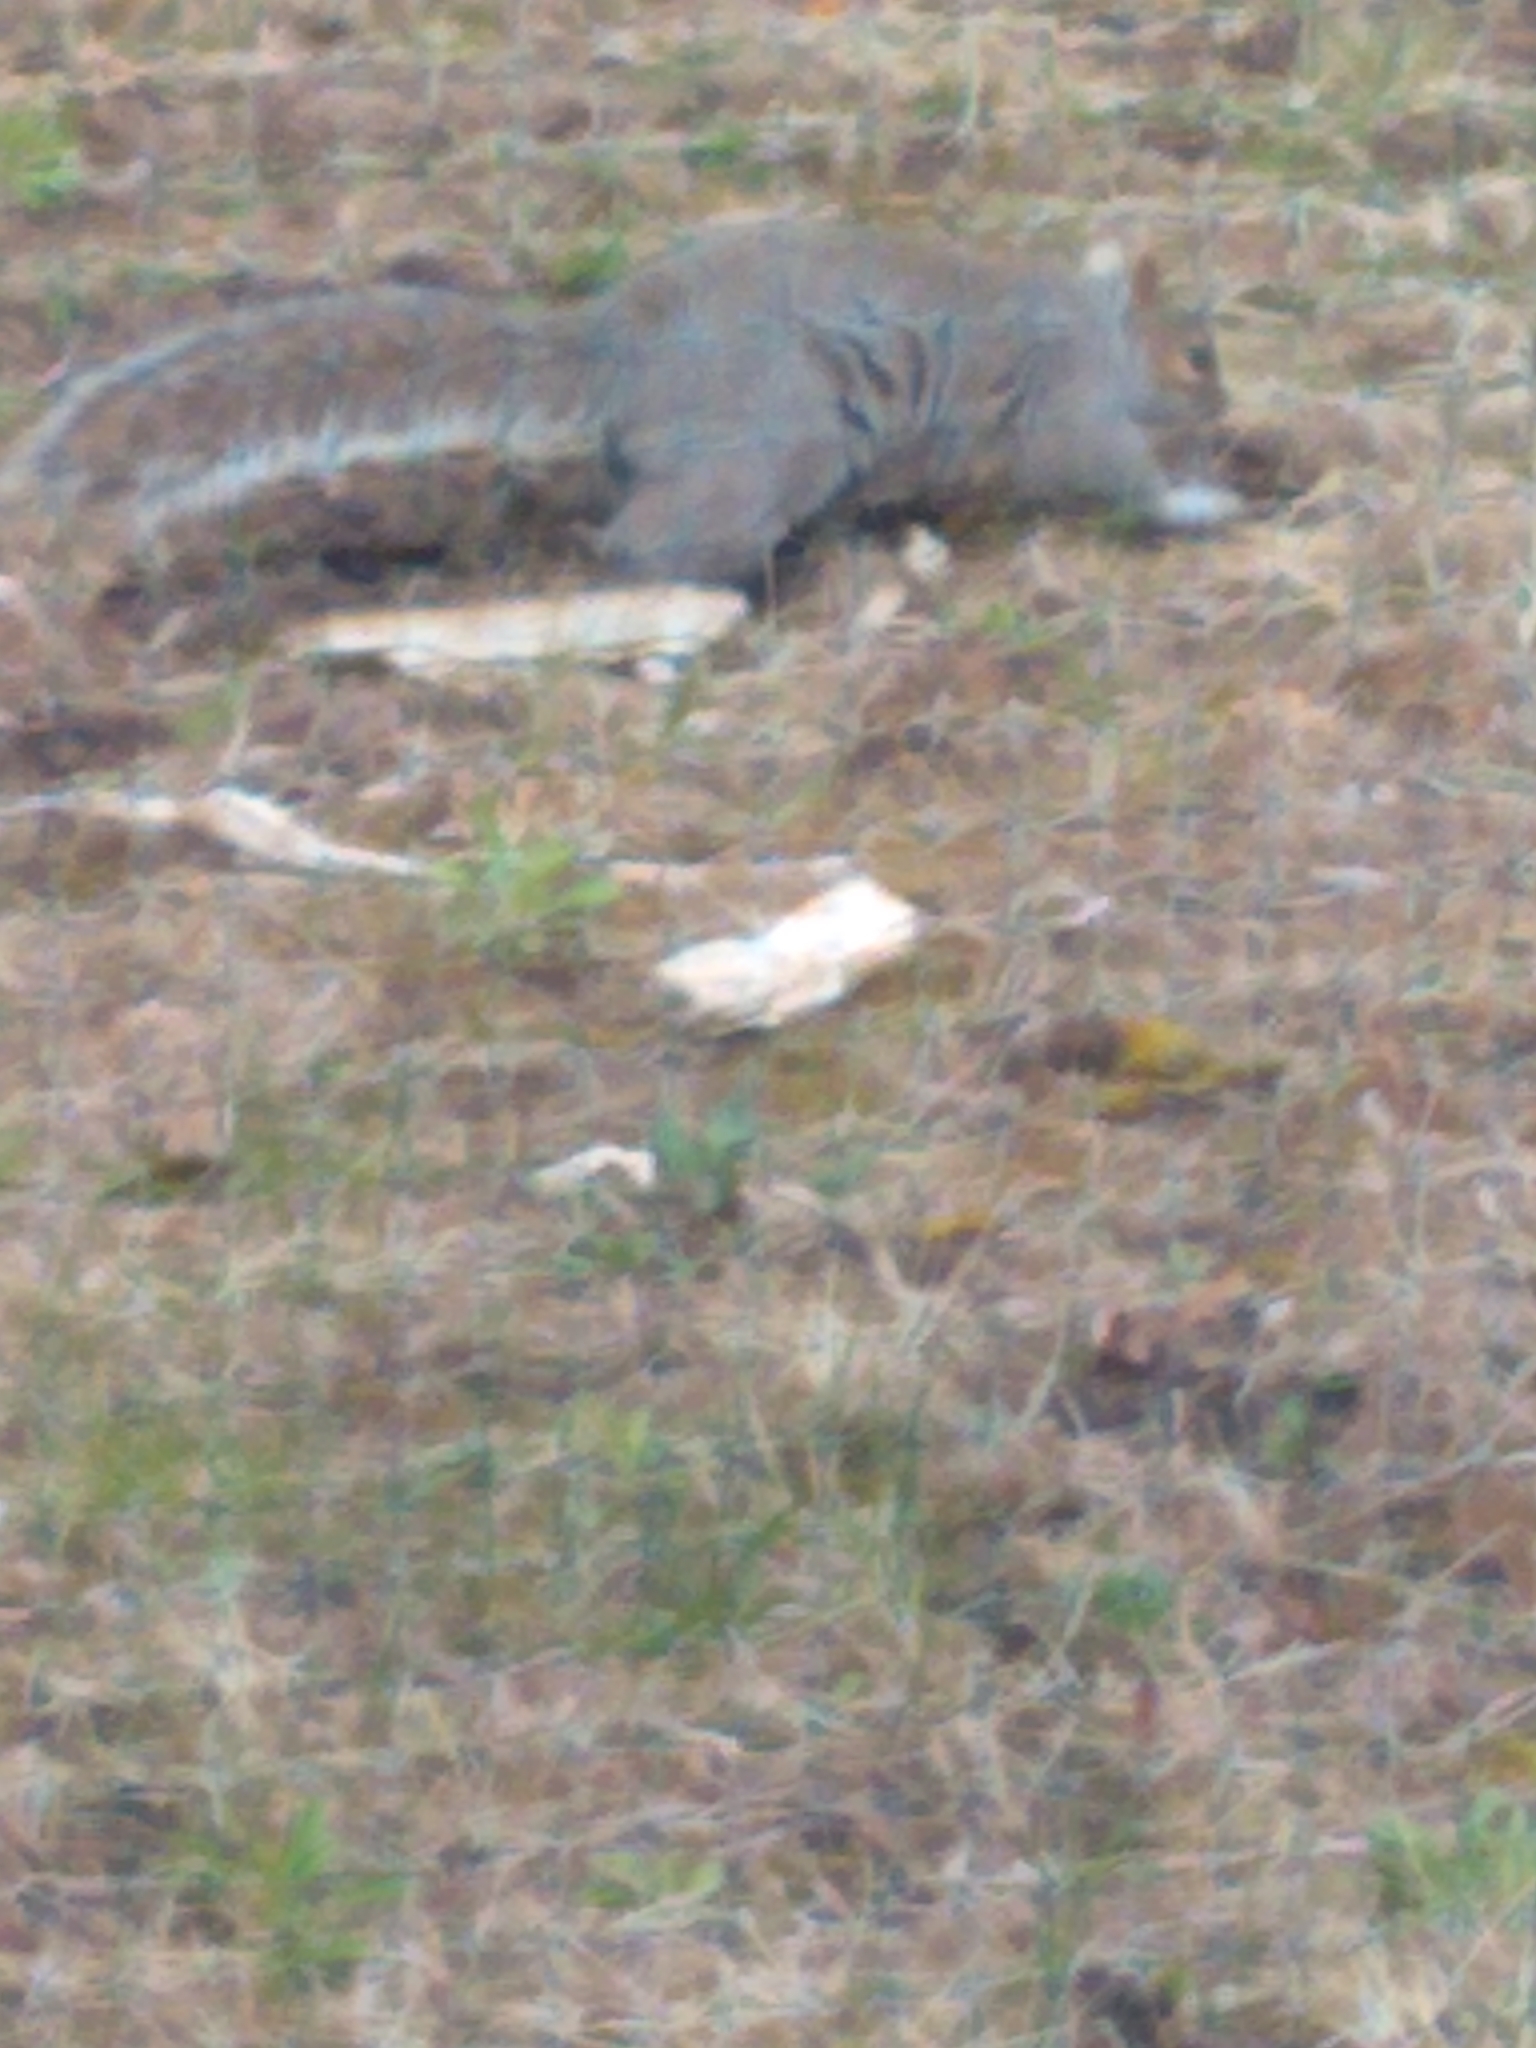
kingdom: Animalia
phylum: Chordata
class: Mammalia
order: Rodentia
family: Sciuridae
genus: Sciurus
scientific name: Sciurus carolinensis
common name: Eastern gray squirrel
